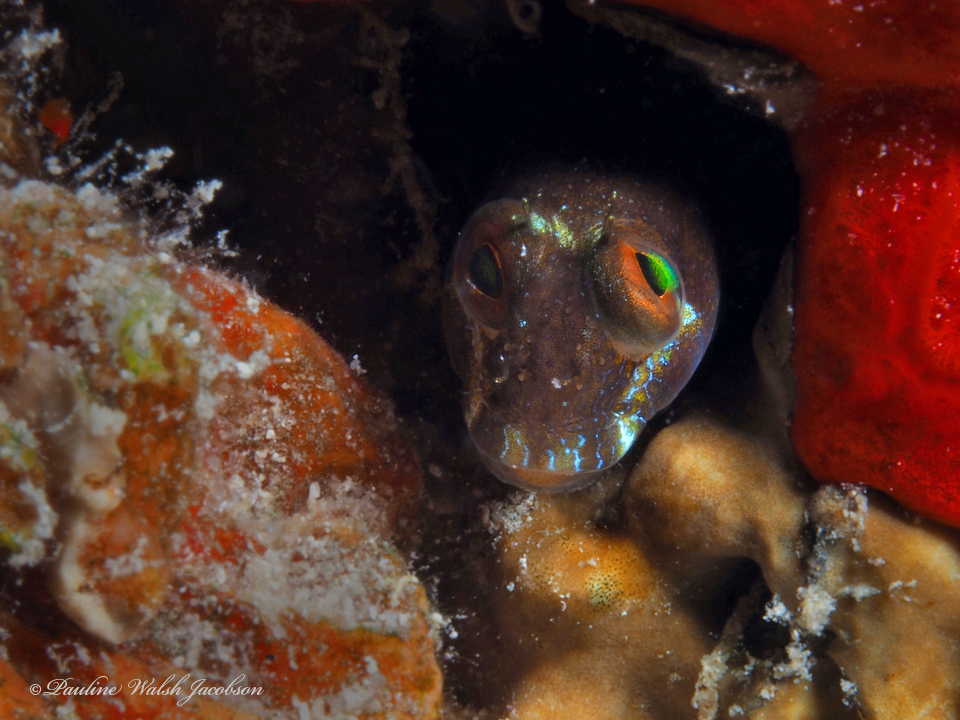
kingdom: Animalia
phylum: Chordata
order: Perciformes
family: Blenniidae
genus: Parablennius
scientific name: Parablennius marmoreus
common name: Seaweed blenny
